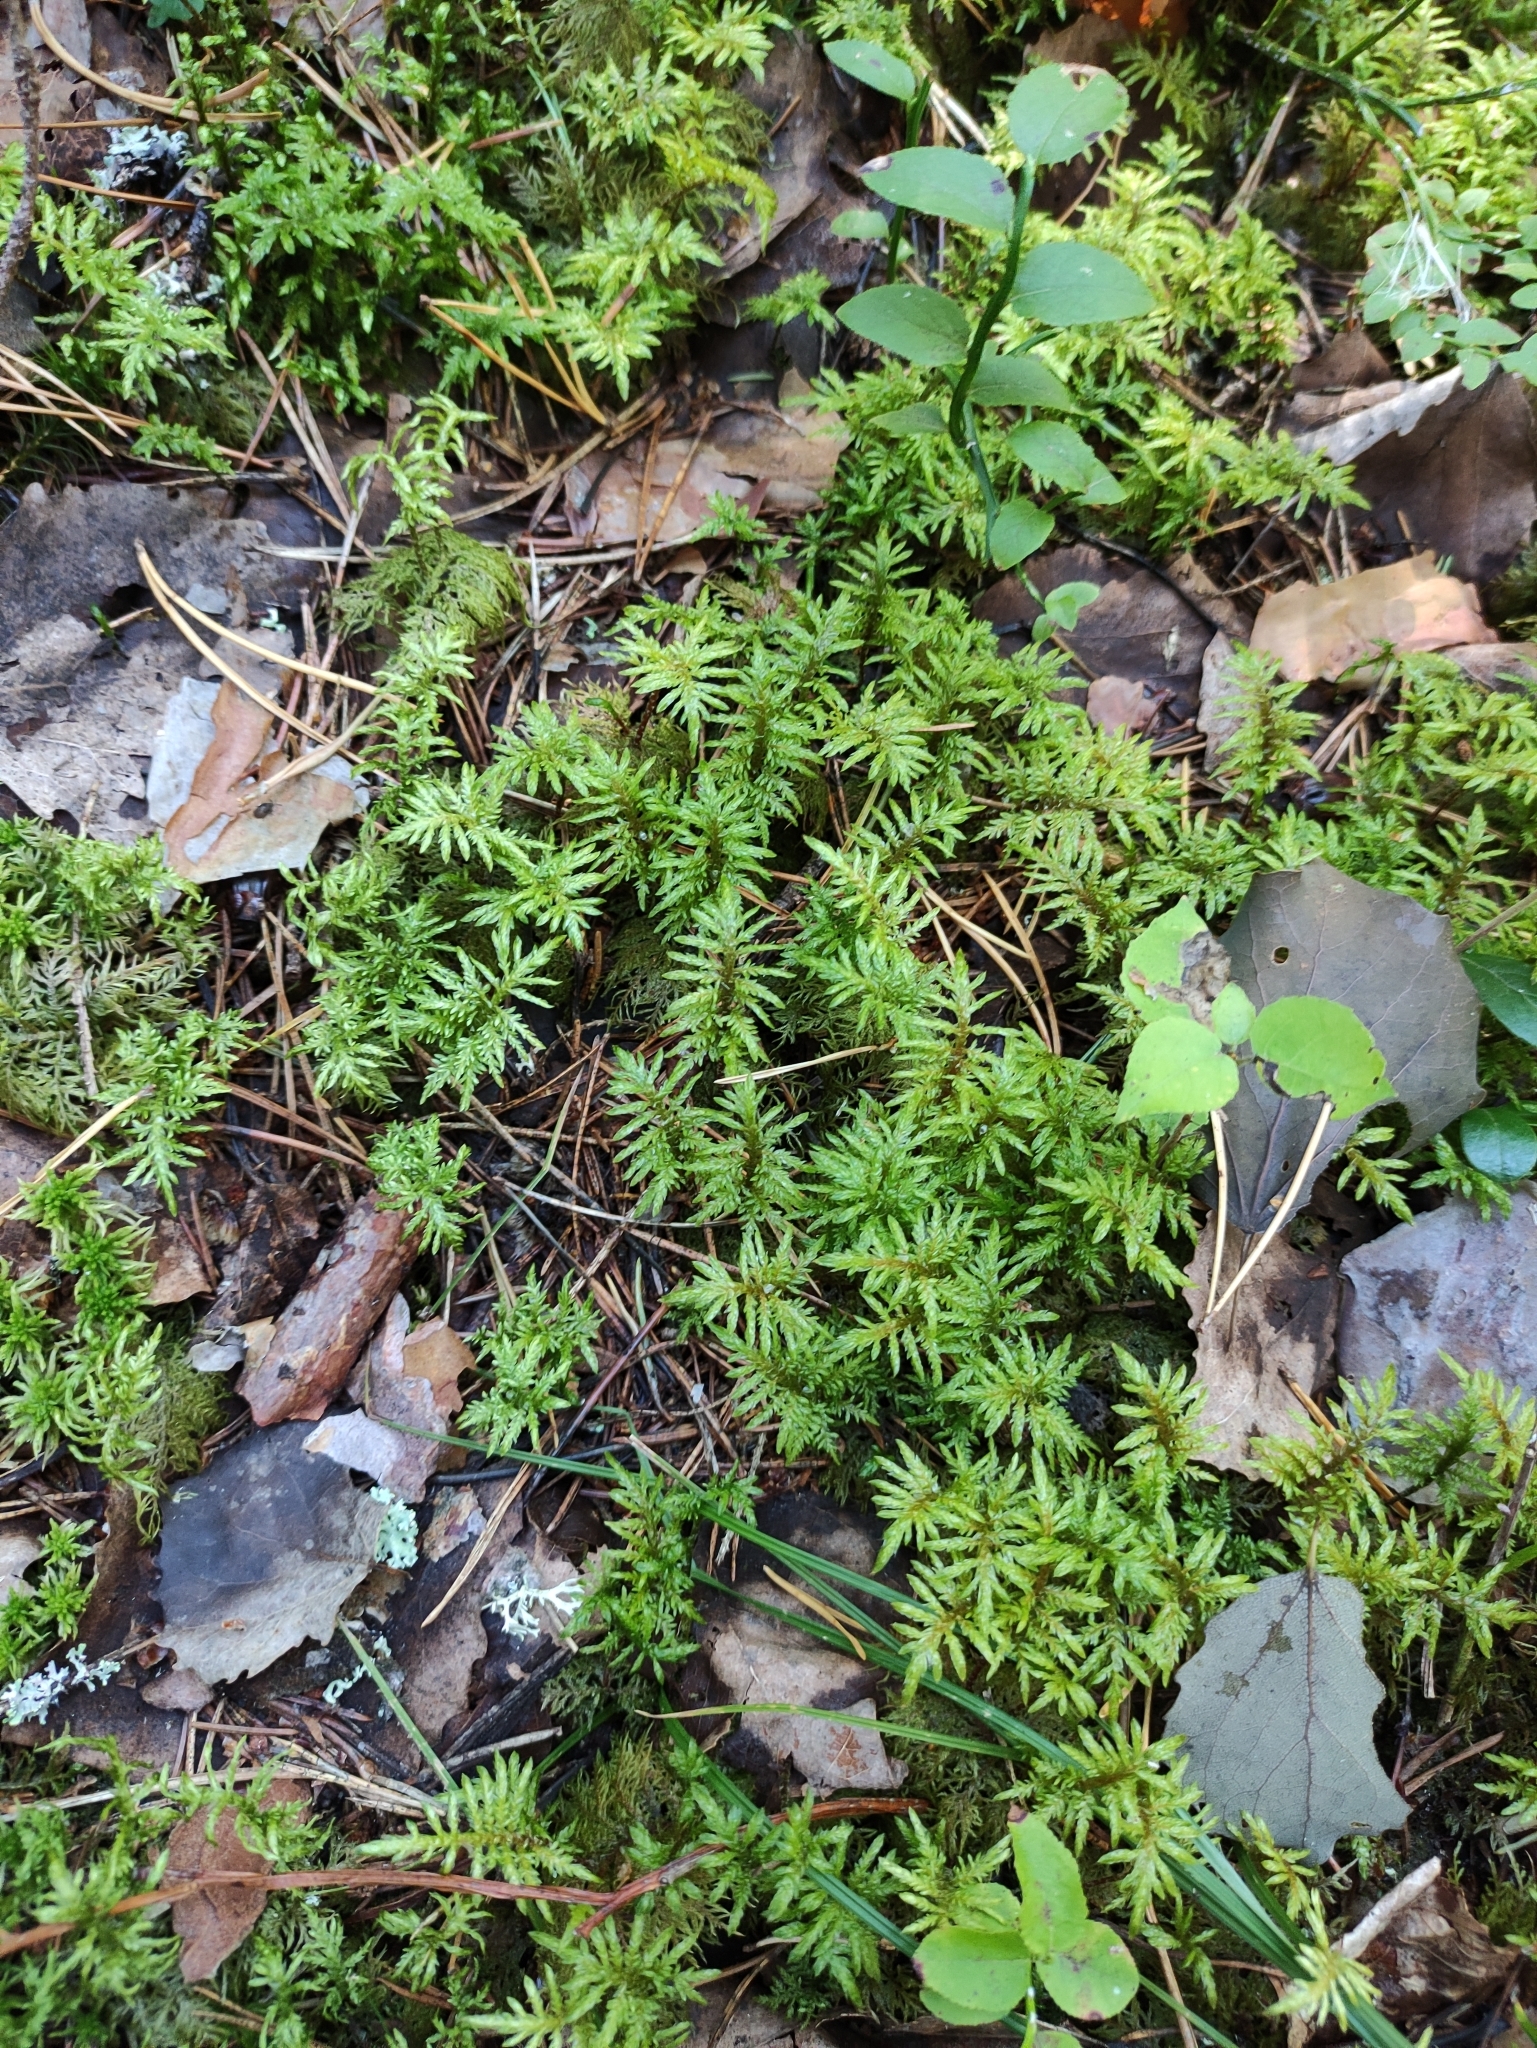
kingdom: Plantae
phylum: Bryophyta
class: Bryopsida
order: Hypnales
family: Hylocomiaceae
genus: Hylocomium
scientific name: Hylocomium splendens
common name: Stairstep moss
